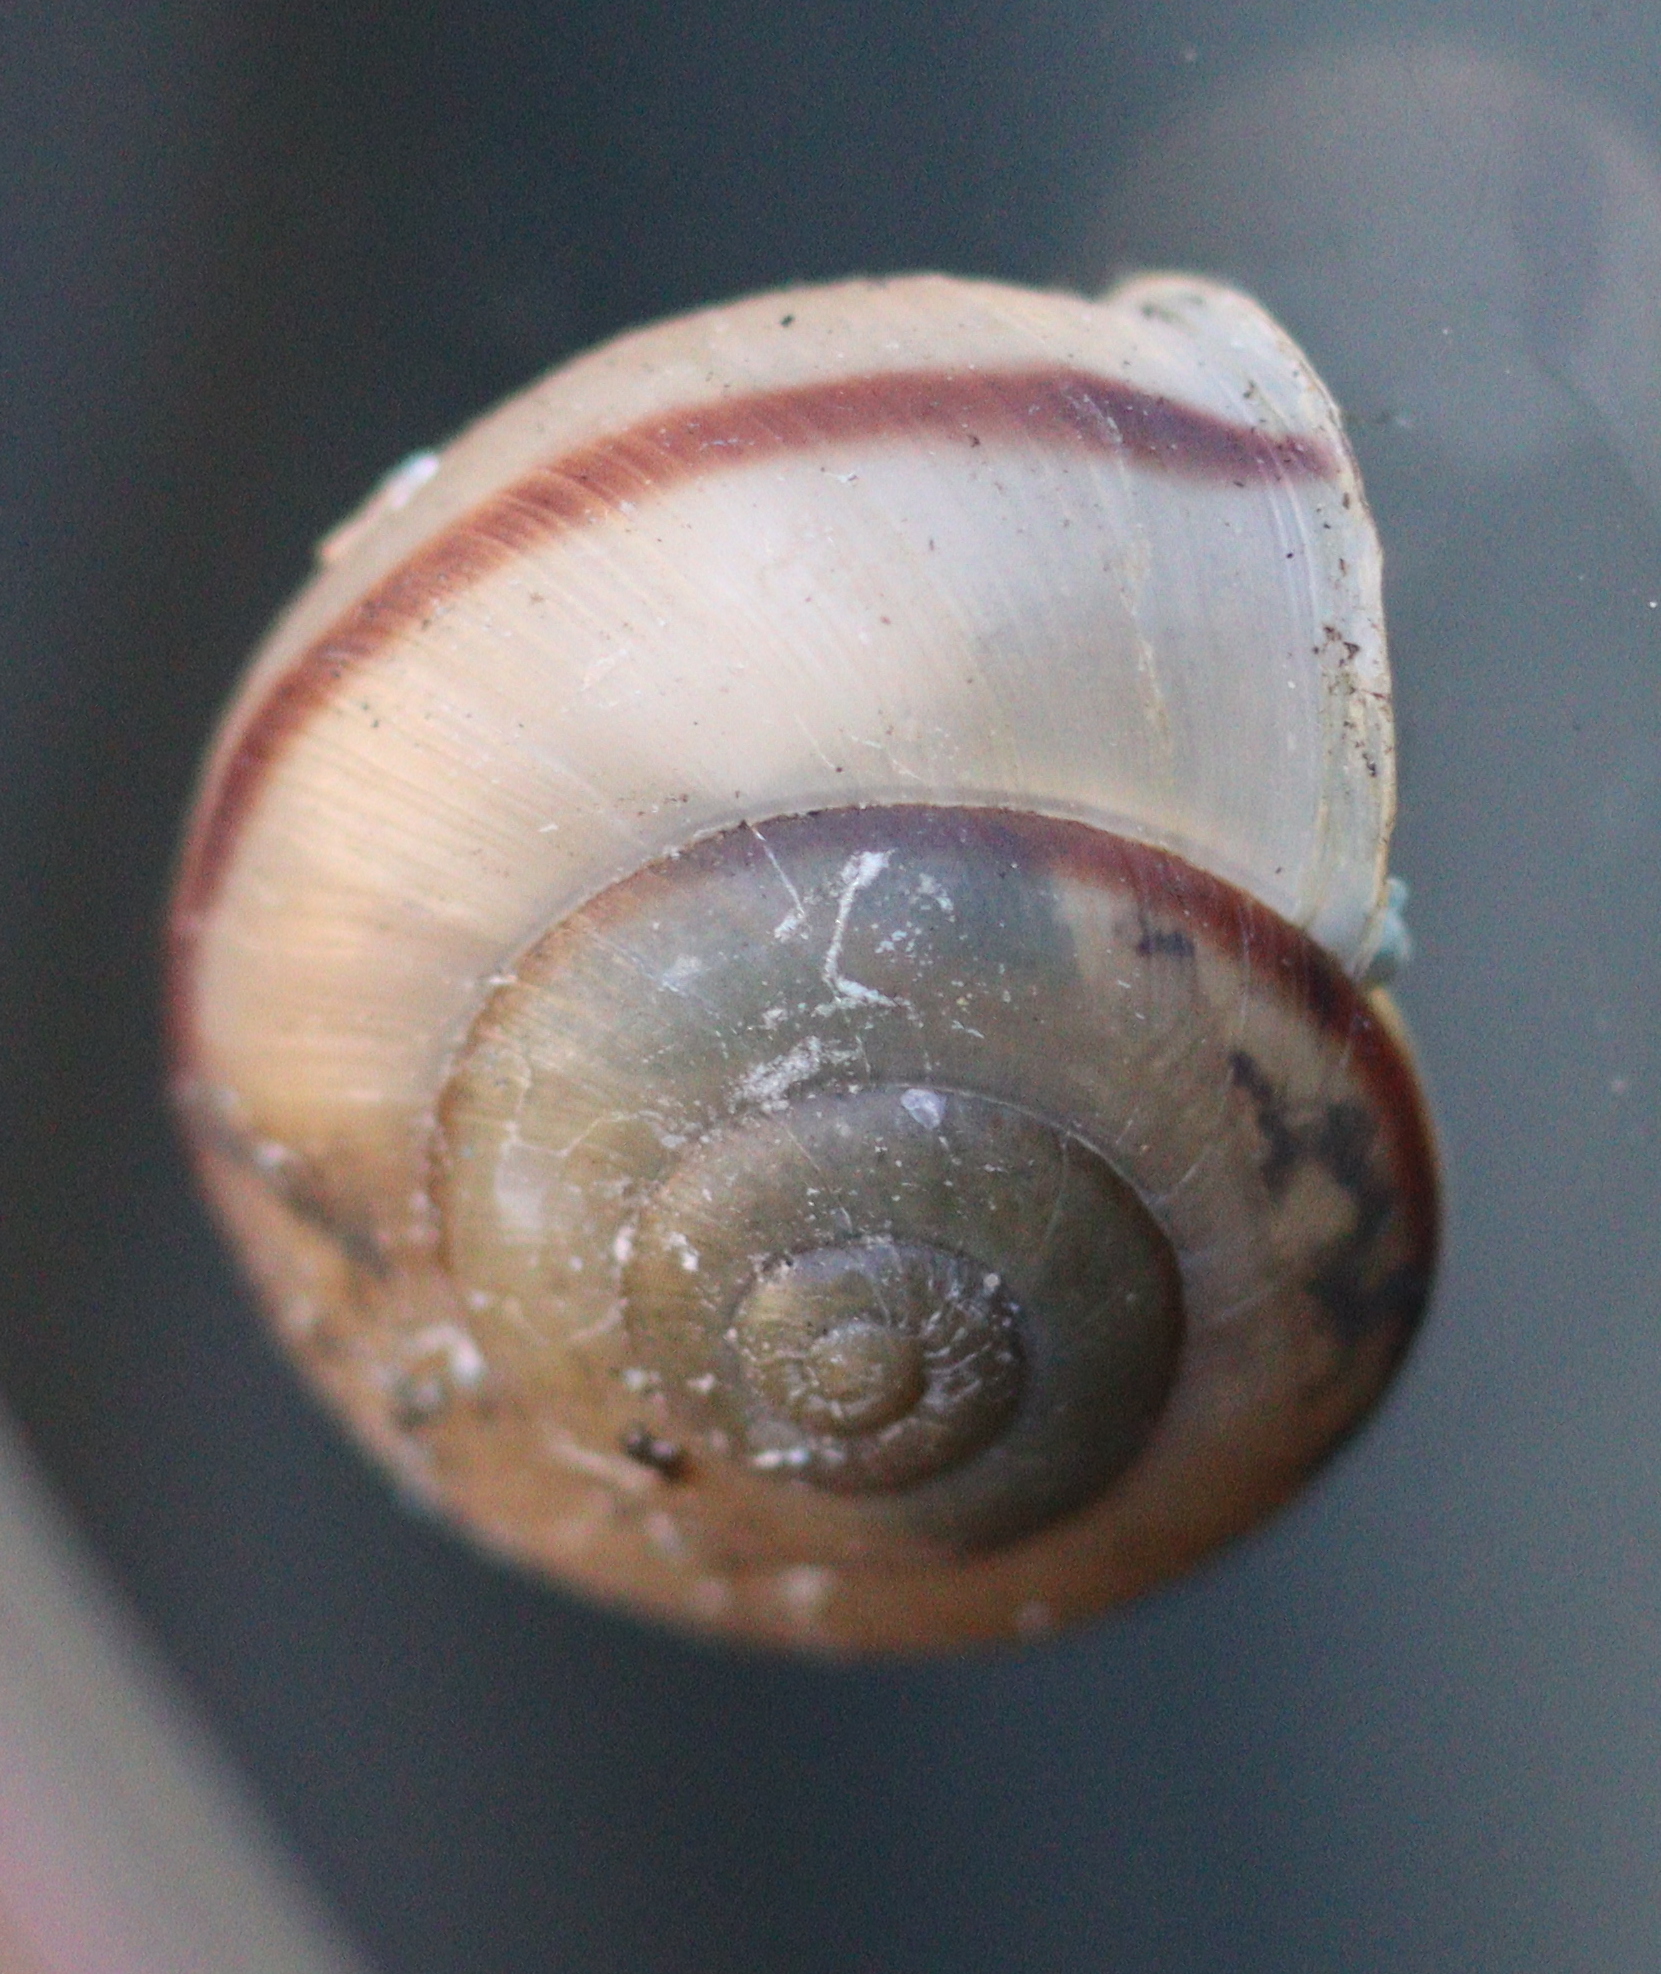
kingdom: Animalia
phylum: Mollusca
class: Gastropoda
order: Stylommatophora
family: Camaenidae
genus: Bradybaena
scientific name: Bradybaena similaris
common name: Asian trampsnail
